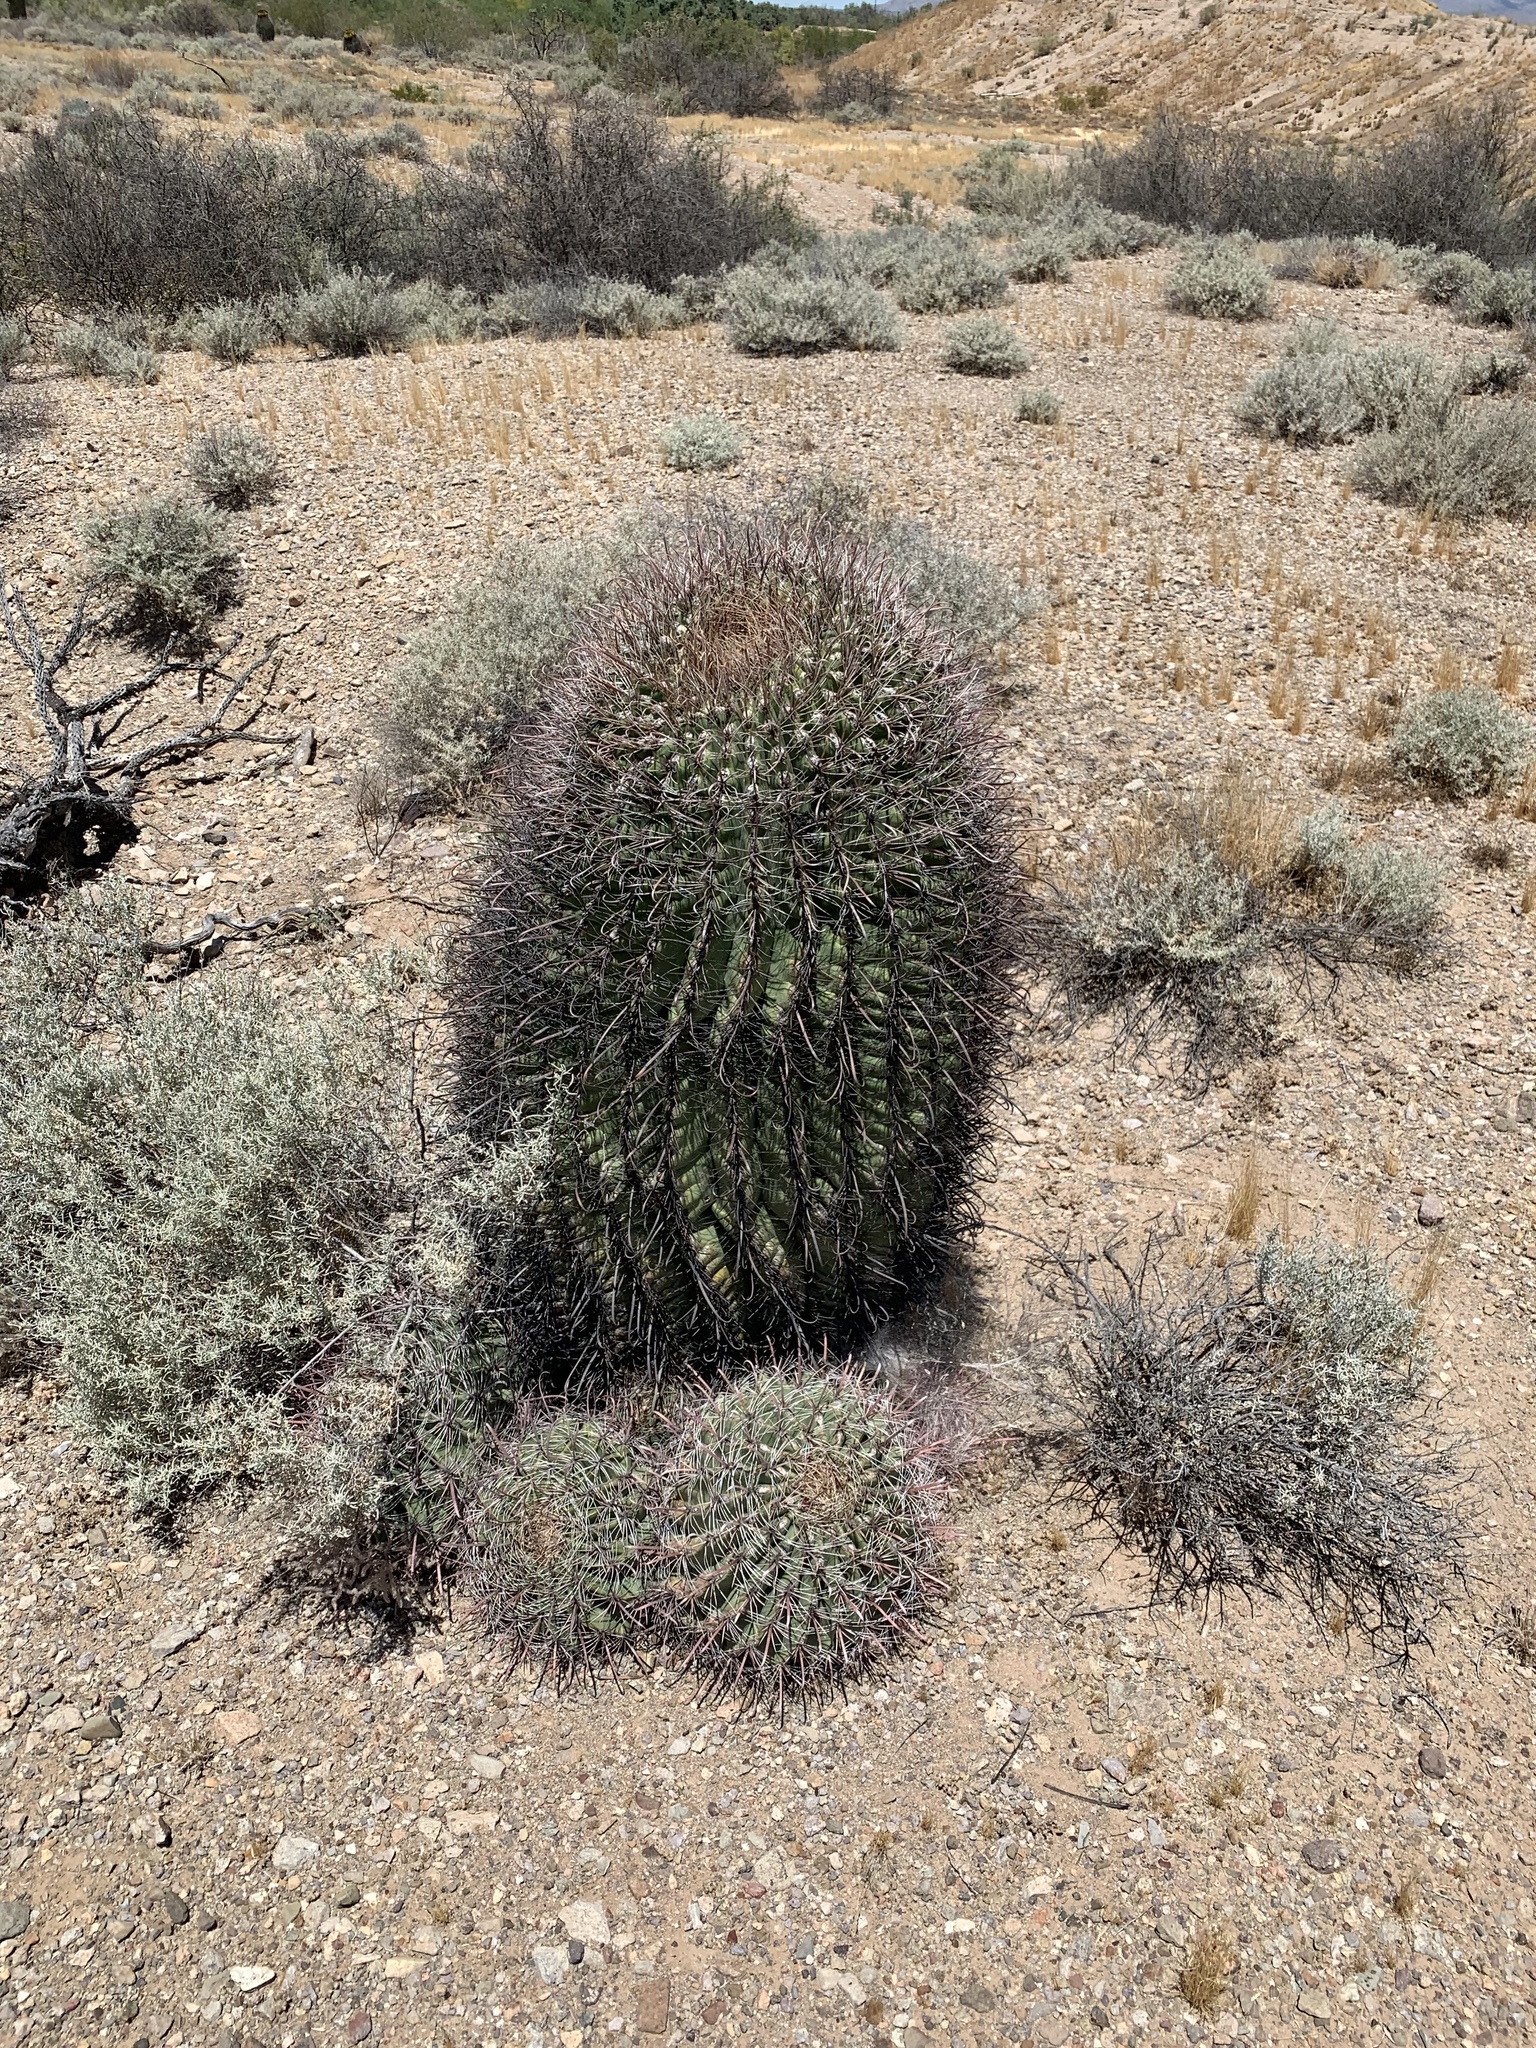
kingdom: Plantae
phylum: Tracheophyta
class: Magnoliopsida
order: Caryophyllales
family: Cactaceae
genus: Ferocactus
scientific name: Ferocactus wislizeni
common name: Candy barrel cactus
